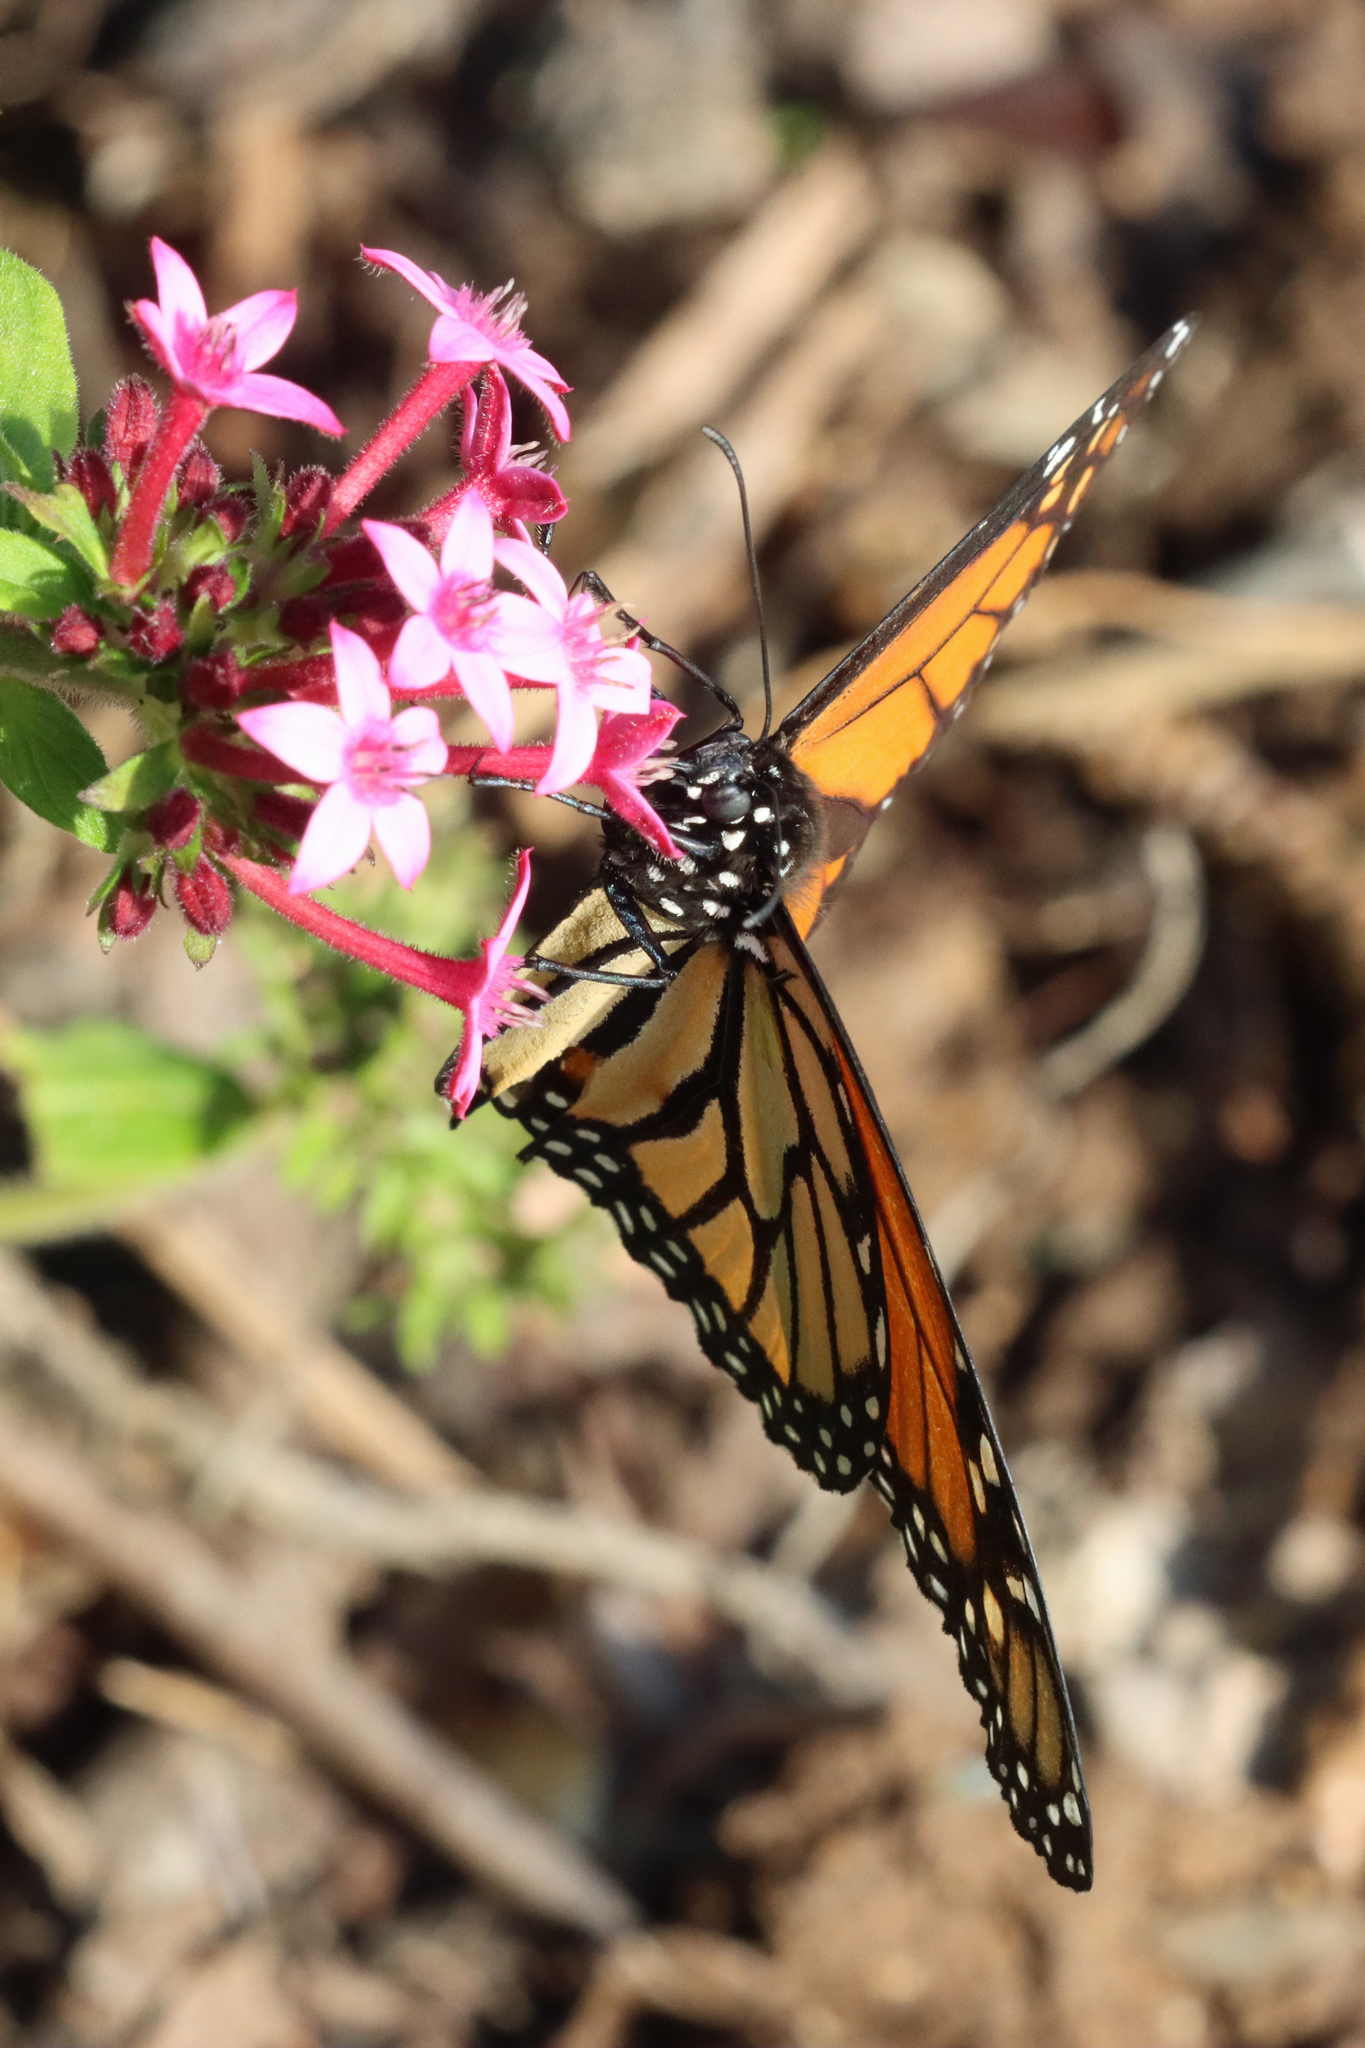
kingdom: Animalia
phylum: Arthropoda
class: Insecta
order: Lepidoptera
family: Nymphalidae
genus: Danaus
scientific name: Danaus plexippus
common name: Monarch
